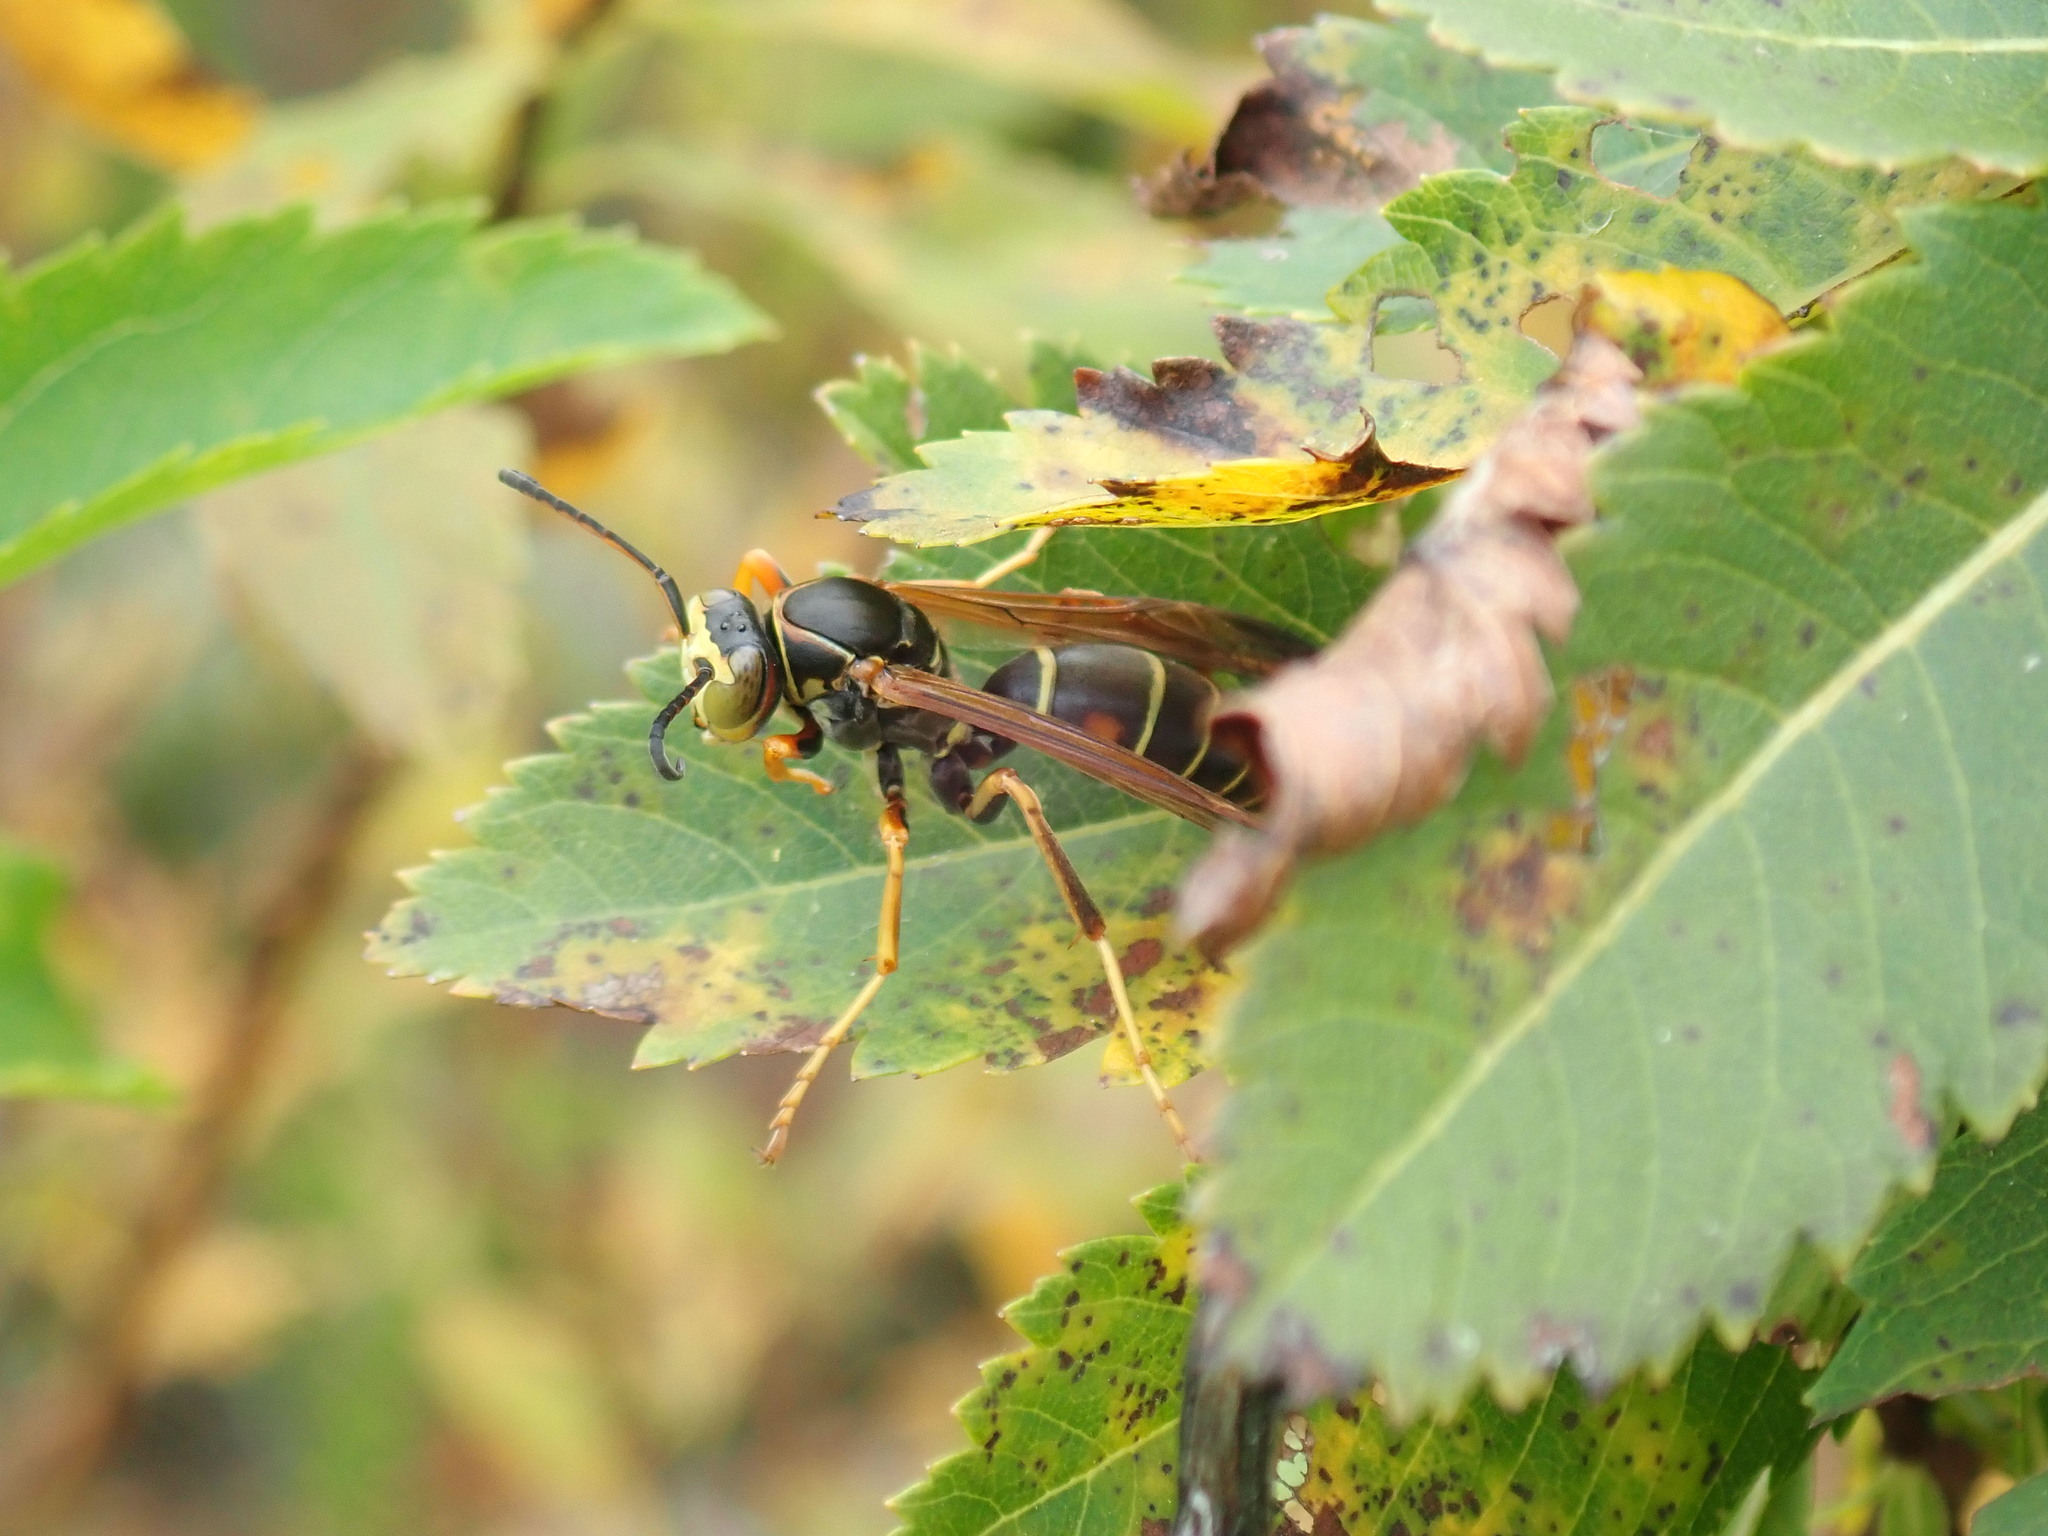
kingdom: Animalia
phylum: Arthropoda
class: Insecta
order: Hymenoptera
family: Eumenidae
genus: Polistes
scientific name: Polistes fuscatus
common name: Dark paper wasp
